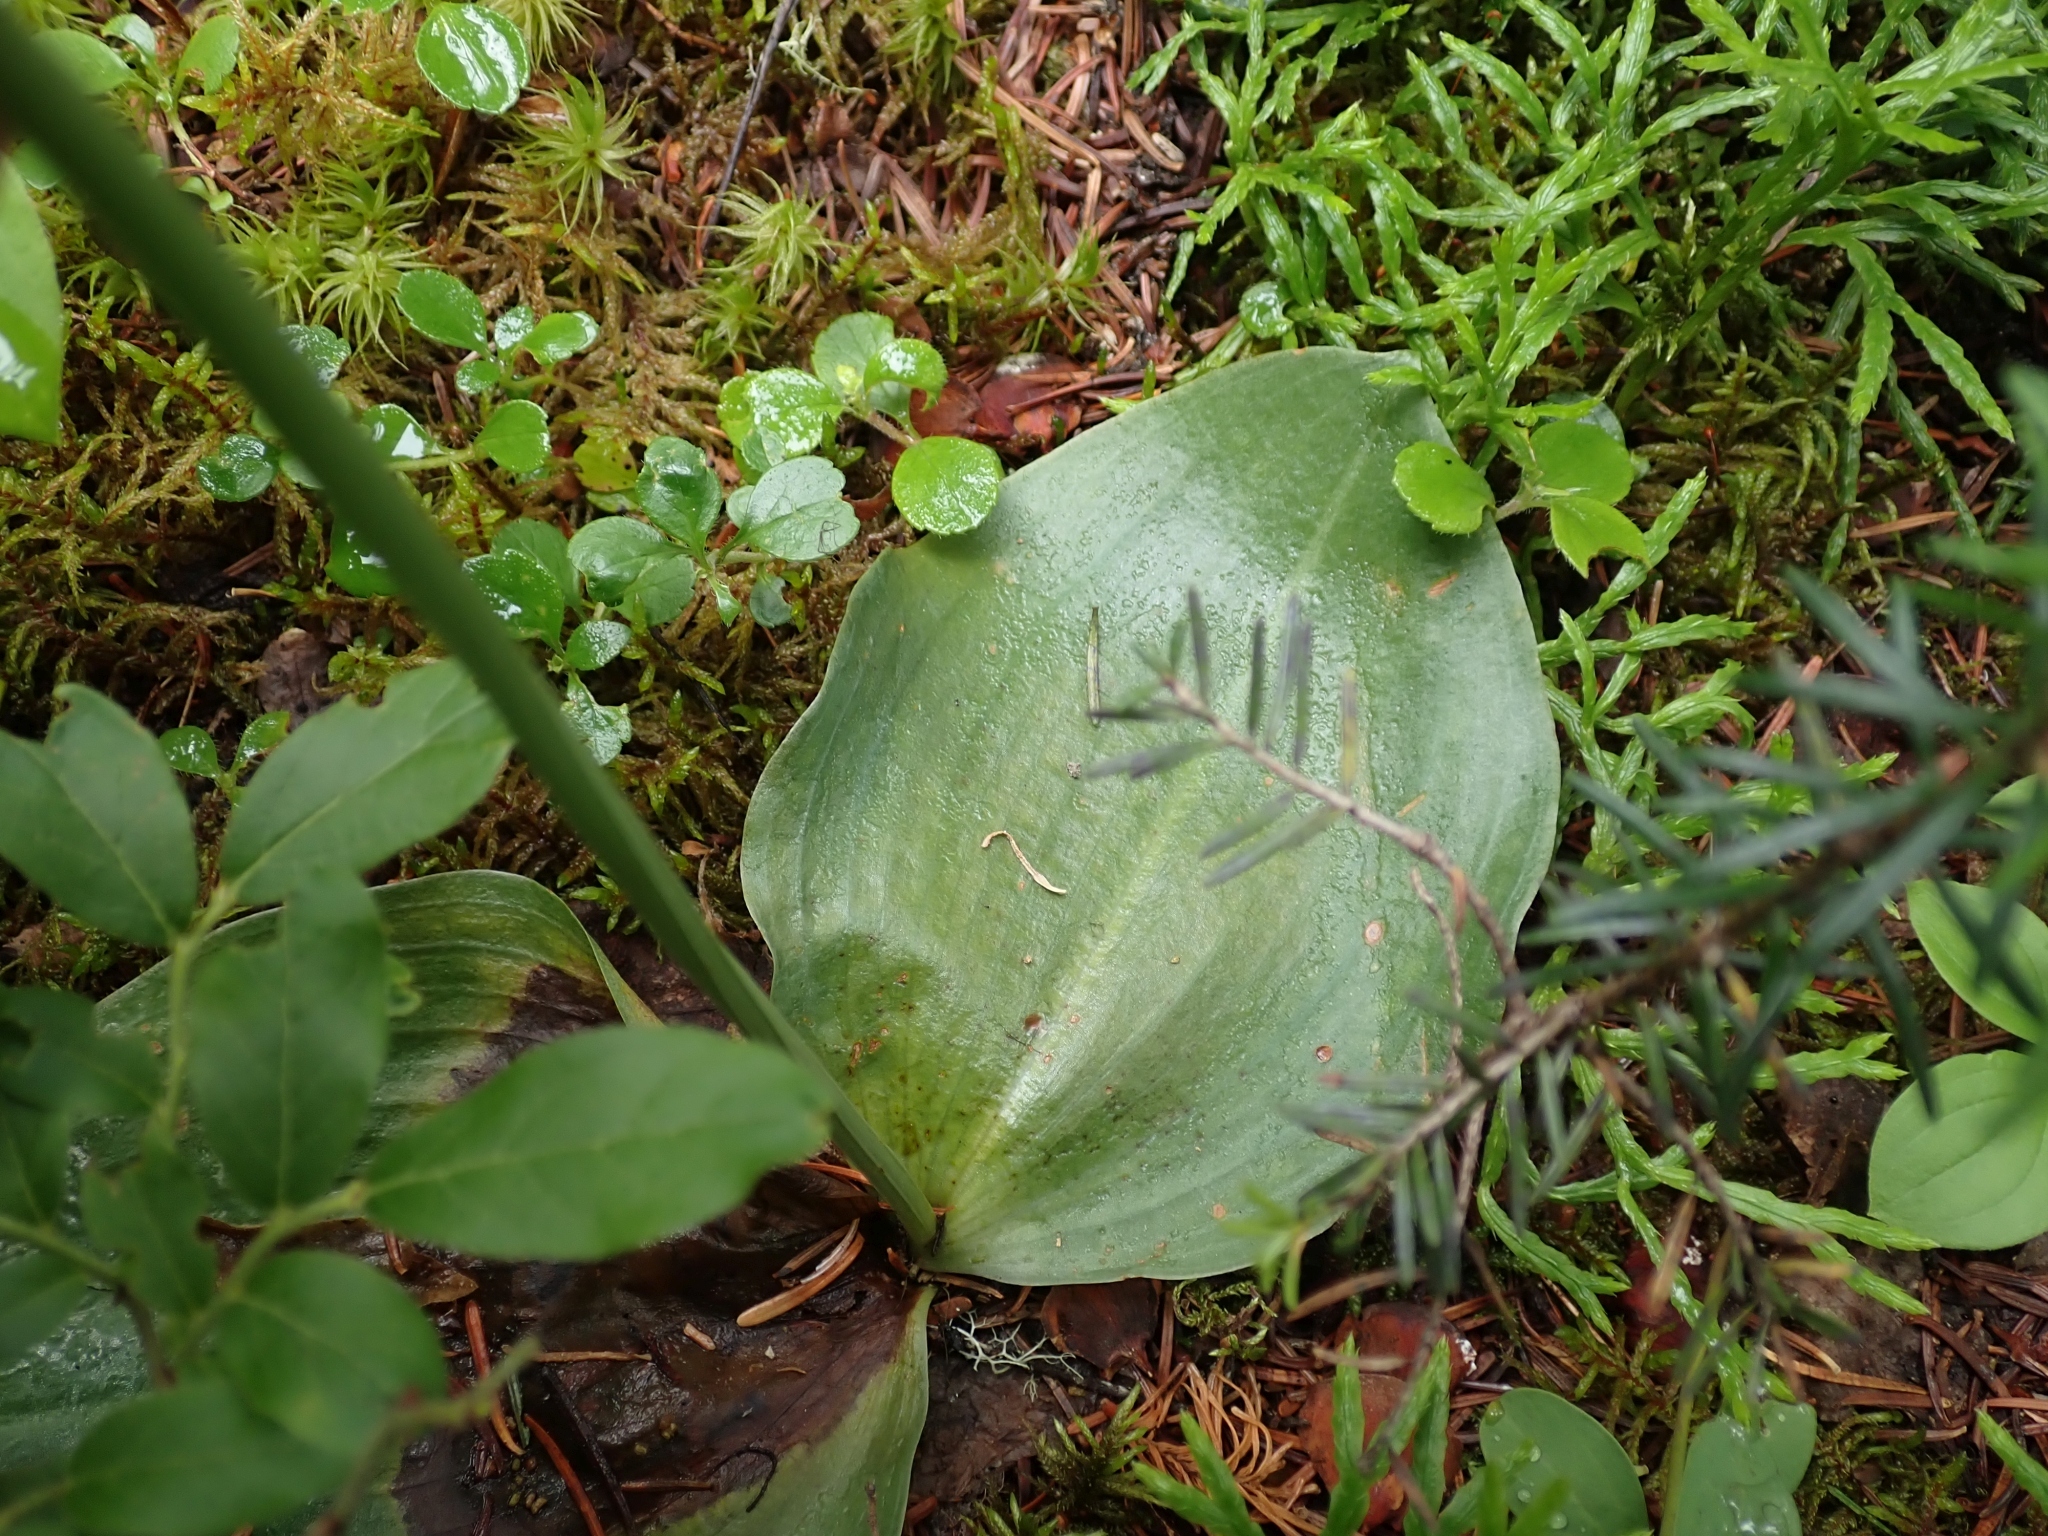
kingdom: Plantae
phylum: Tracheophyta
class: Liliopsida
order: Asparagales
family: Orchidaceae
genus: Platanthera
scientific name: Platanthera orbiculata
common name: Large round-leaved orchid
